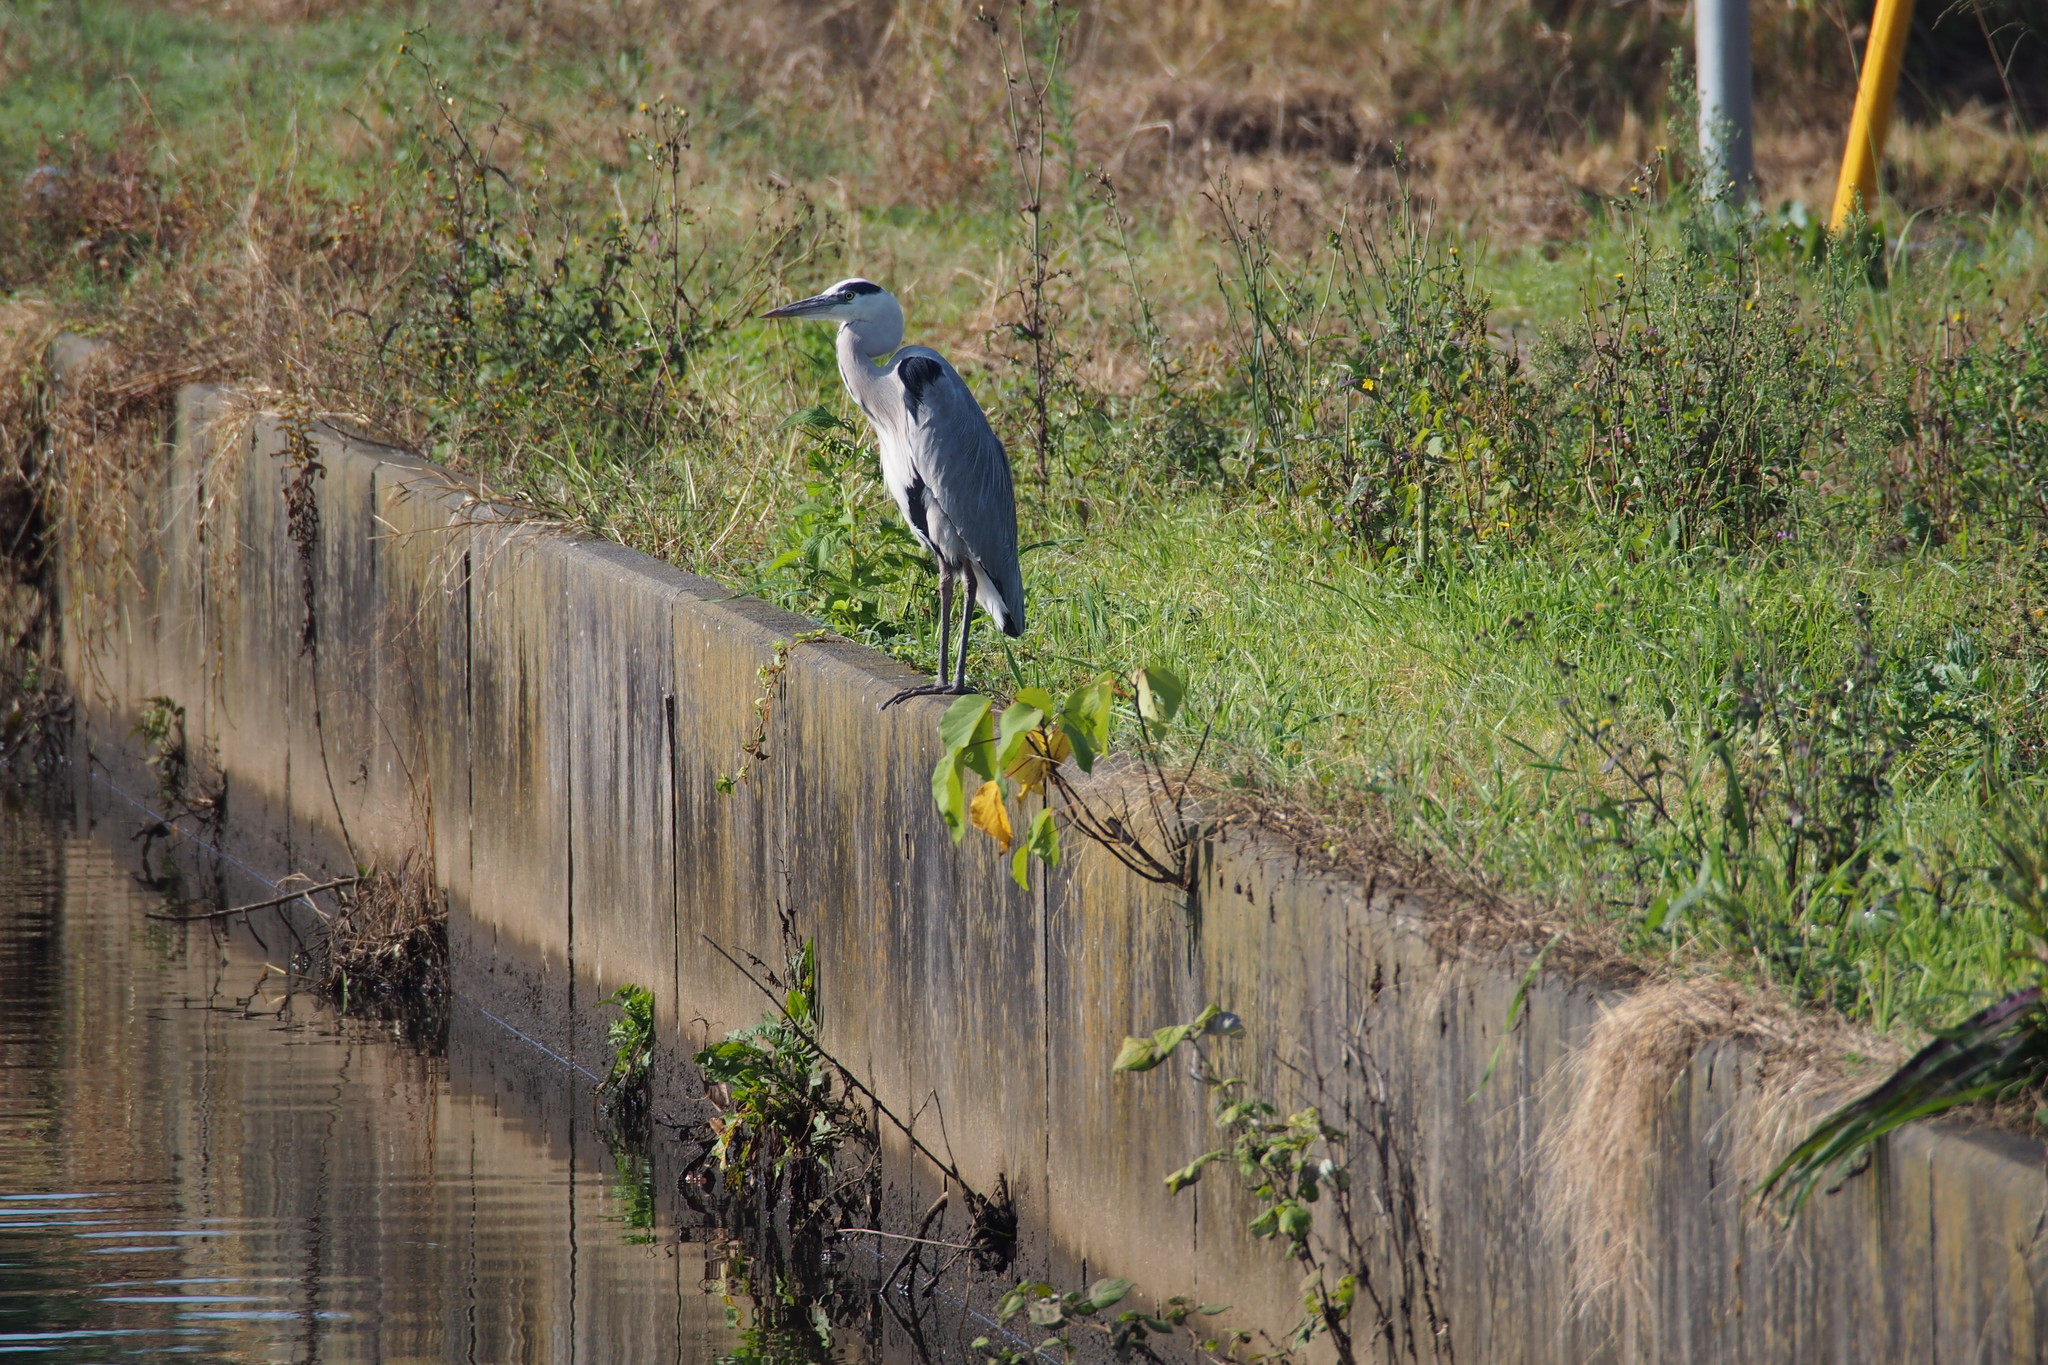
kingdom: Animalia
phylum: Chordata
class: Aves
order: Pelecaniformes
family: Ardeidae
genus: Ardea
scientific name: Ardea cinerea
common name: Grey heron
